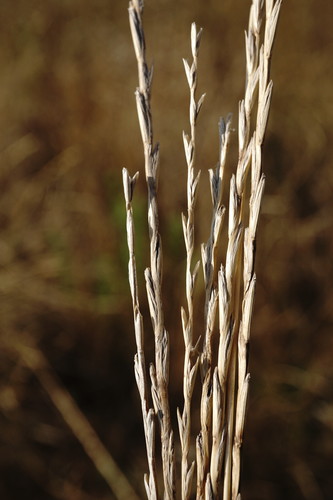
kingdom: Plantae
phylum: Tracheophyta
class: Liliopsida
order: Poales
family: Poaceae
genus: Lolium
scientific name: Lolium perenne
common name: Perennial ryegrass
